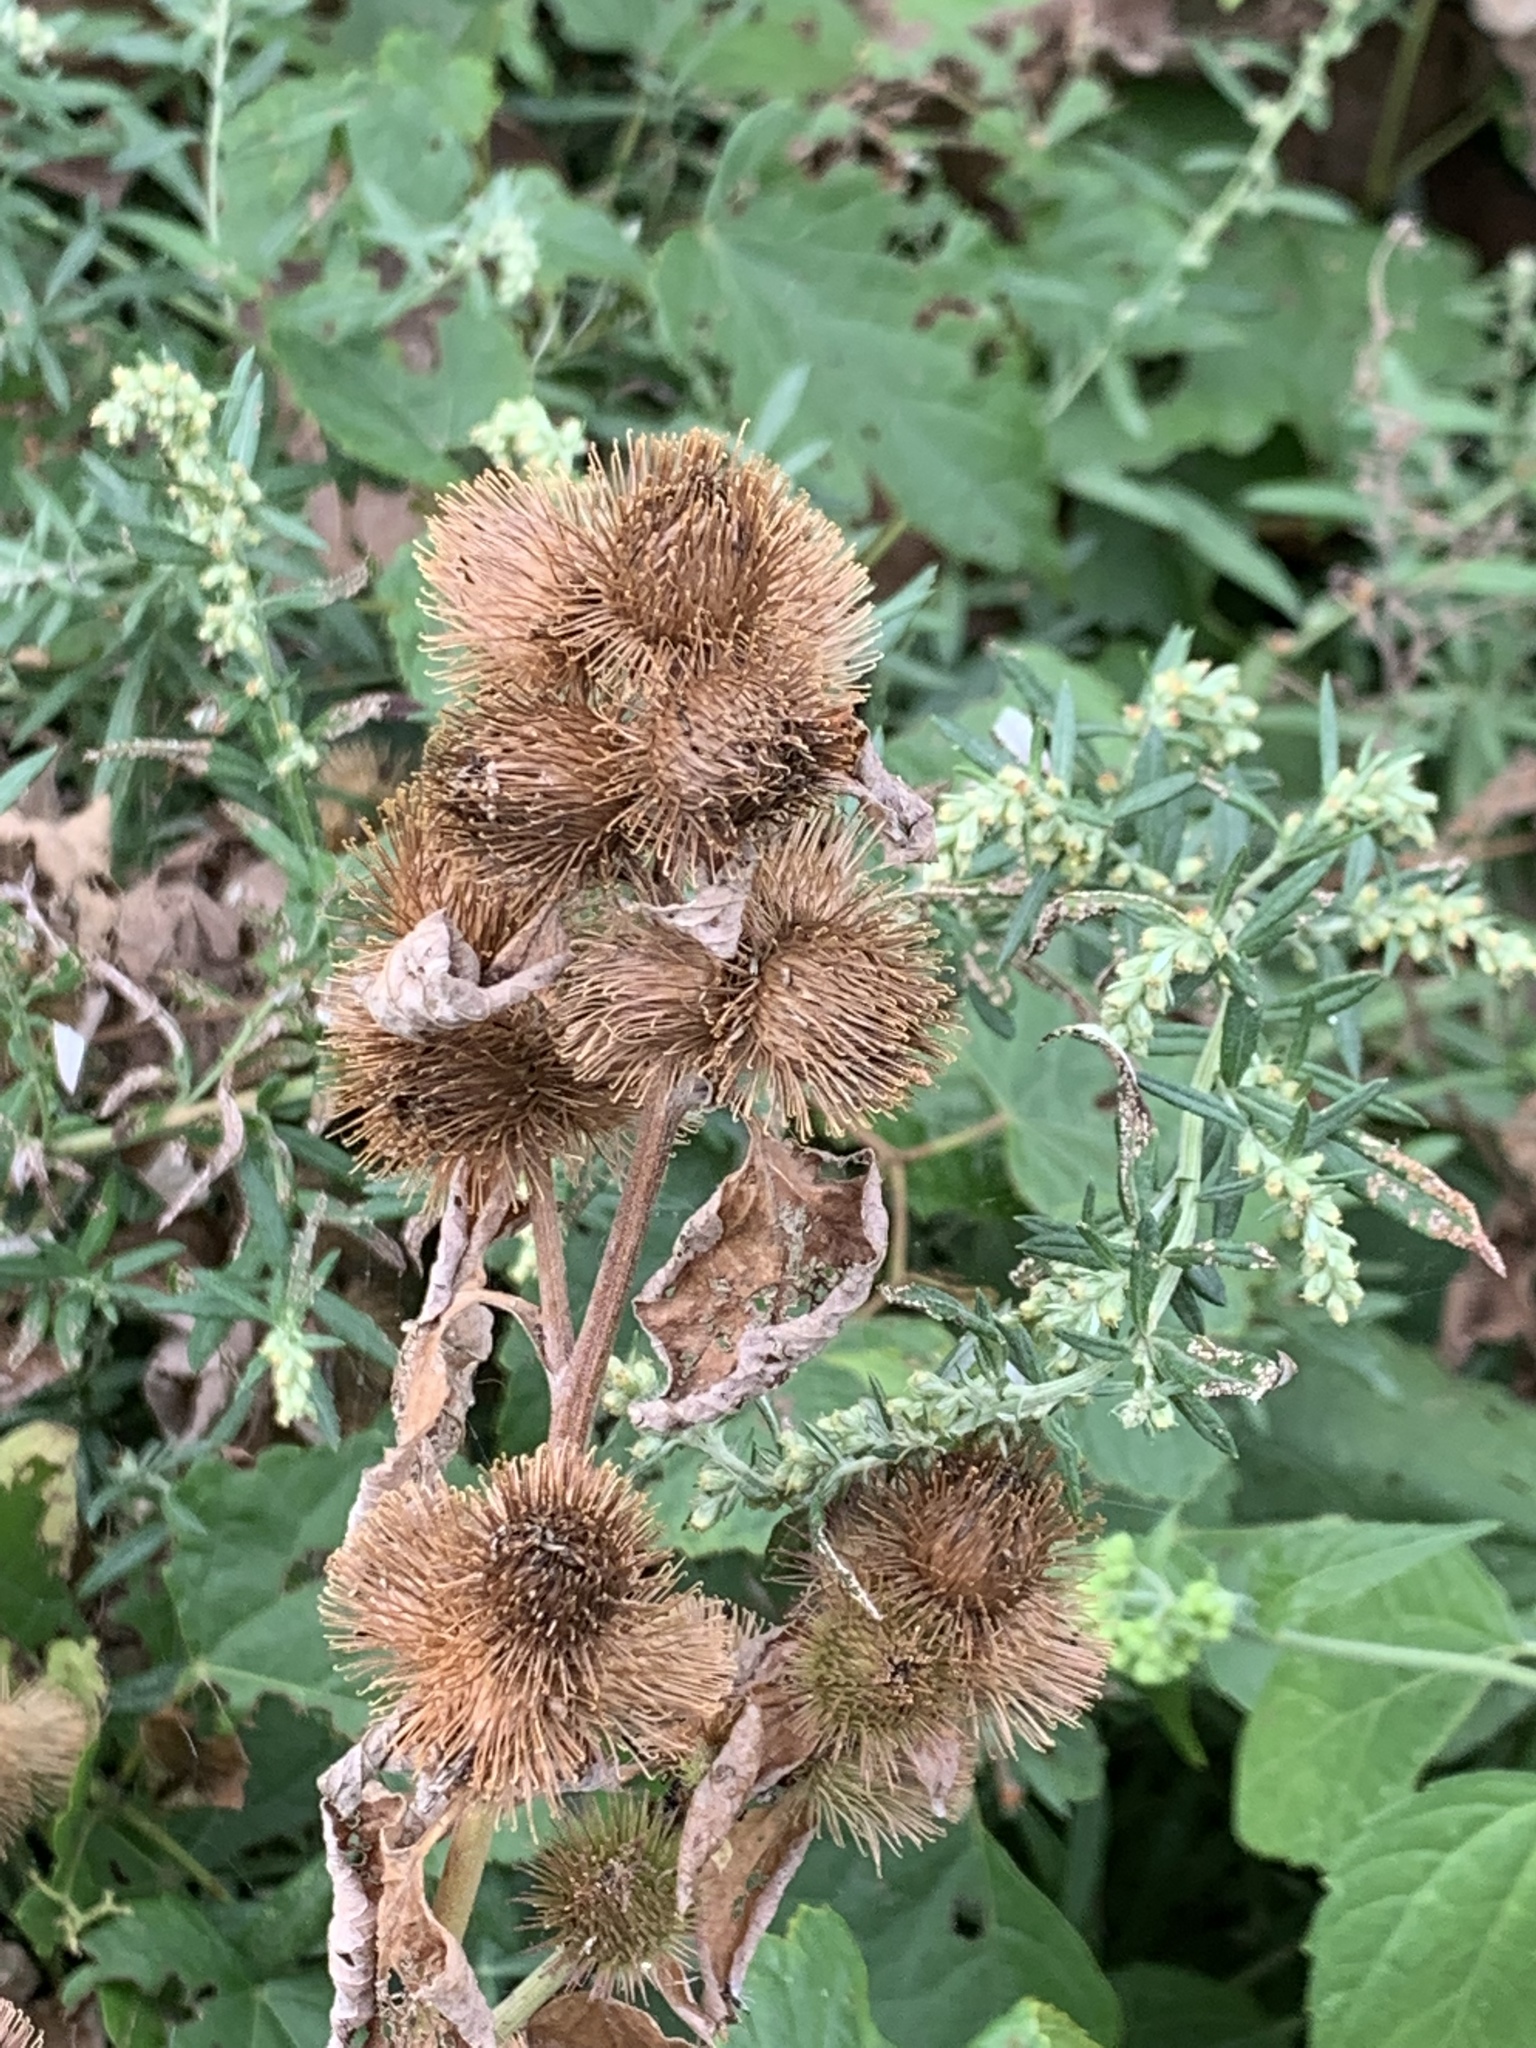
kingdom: Plantae
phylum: Tracheophyta
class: Magnoliopsida
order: Asterales
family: Asteraceae
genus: Arctium
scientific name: Arctium minus
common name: Lesser burdock
